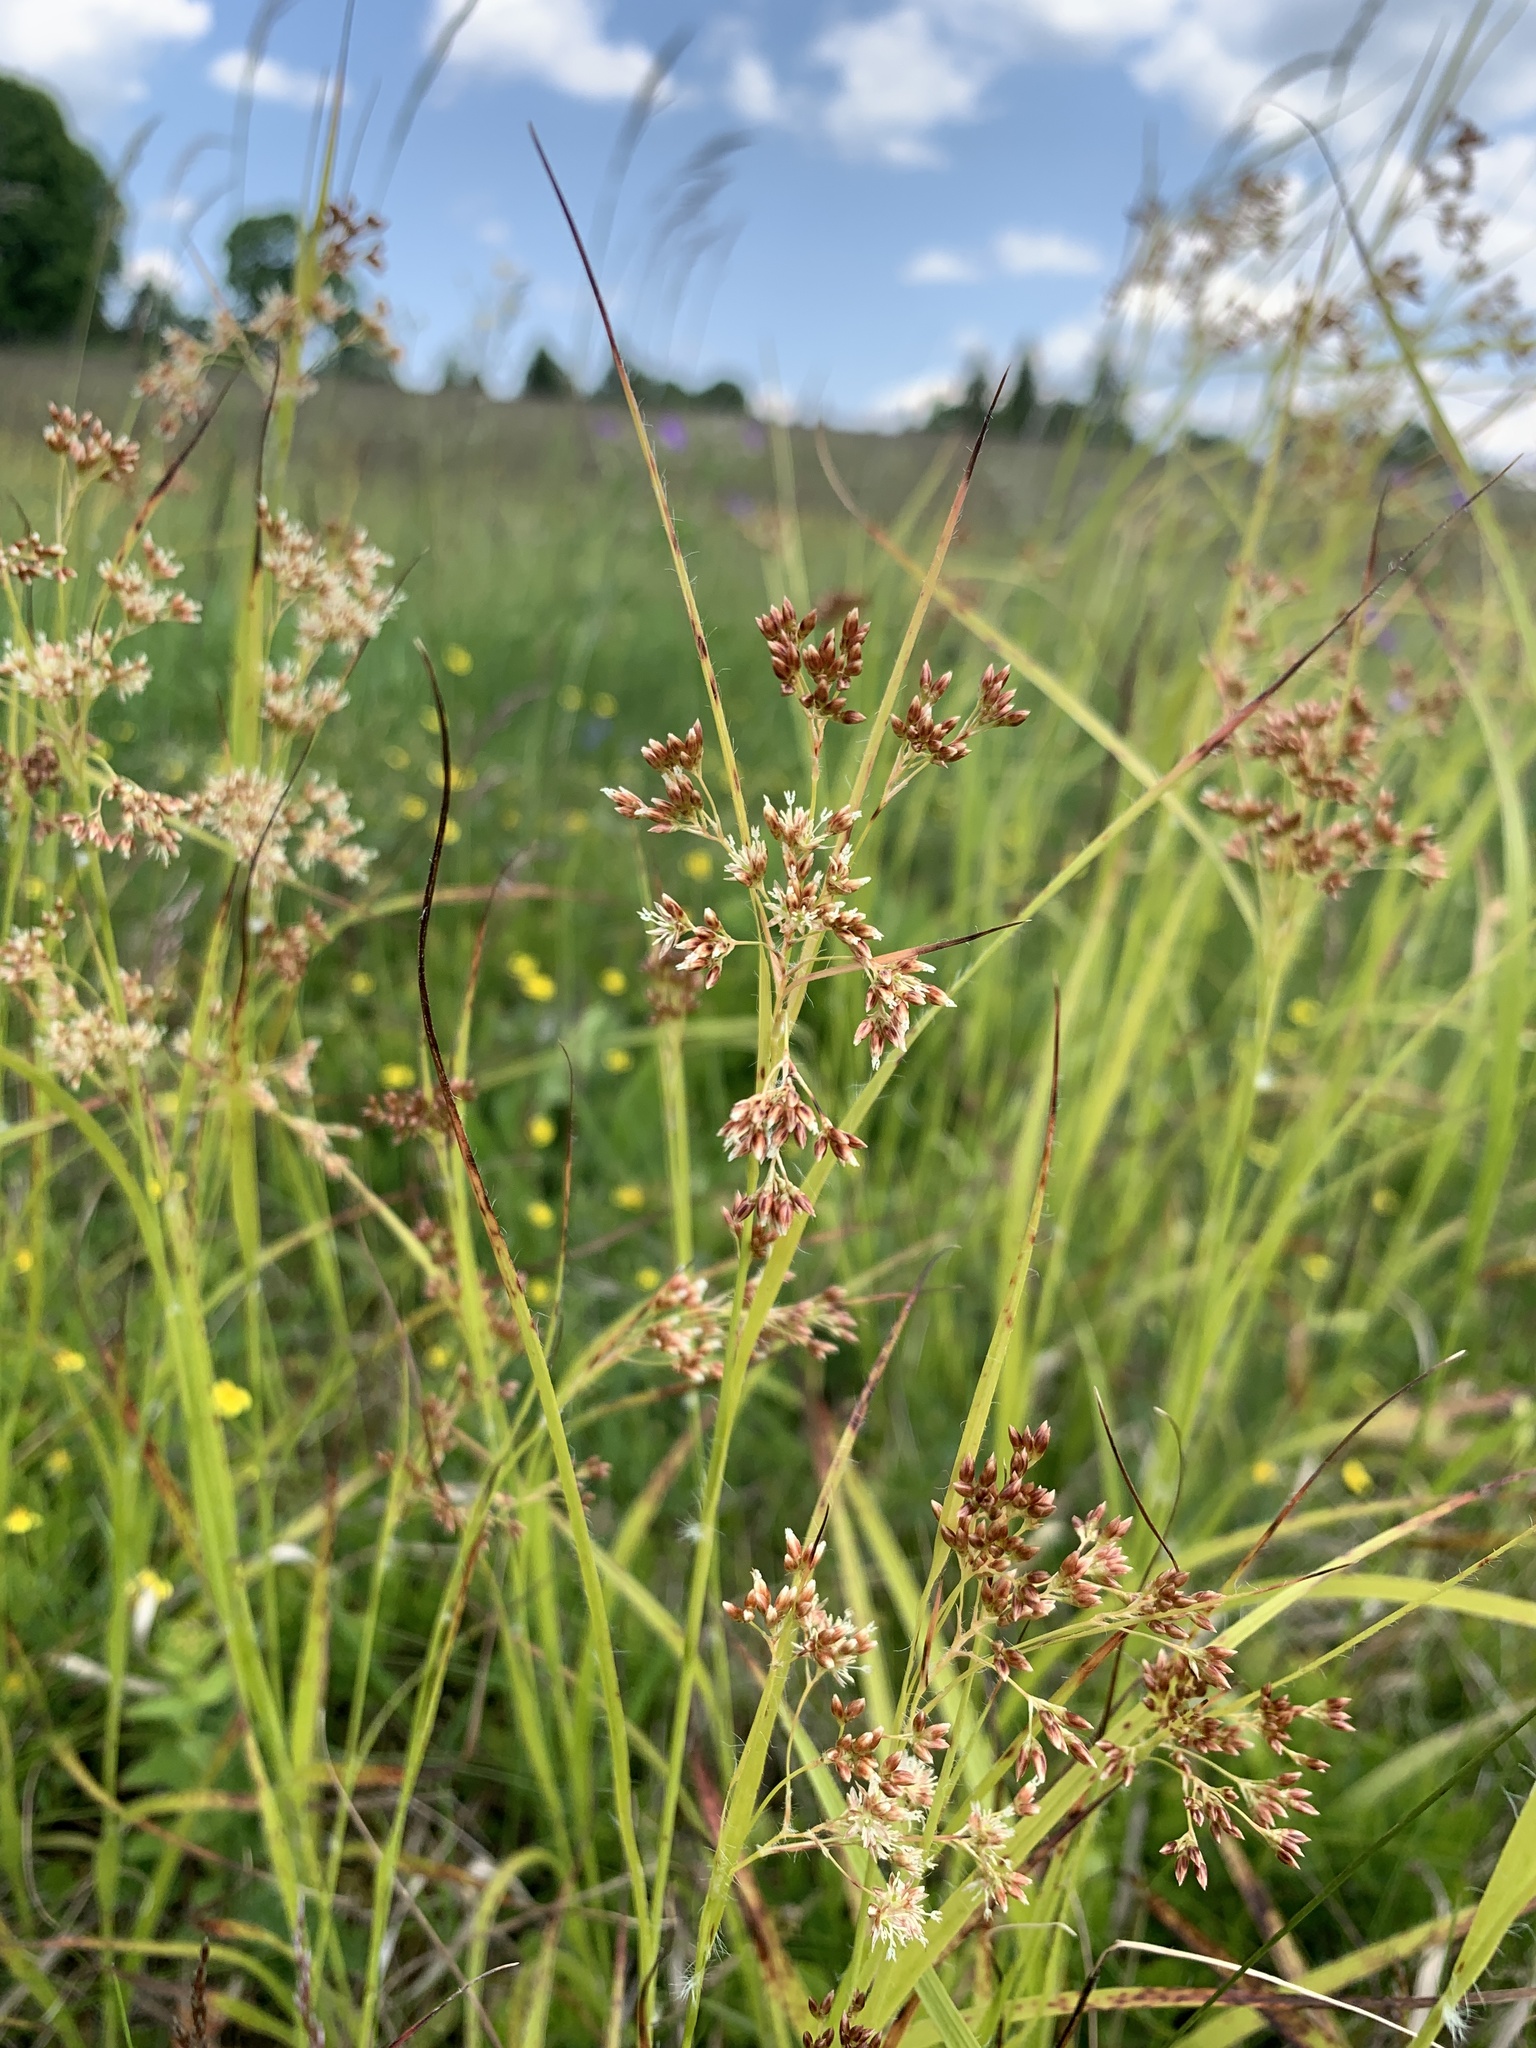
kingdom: Plantae
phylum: Tracheophyta
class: Liliopsida
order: Poales
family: Juncaceae
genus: Luzula
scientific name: Luzula luzuloides
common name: White wood-rush
